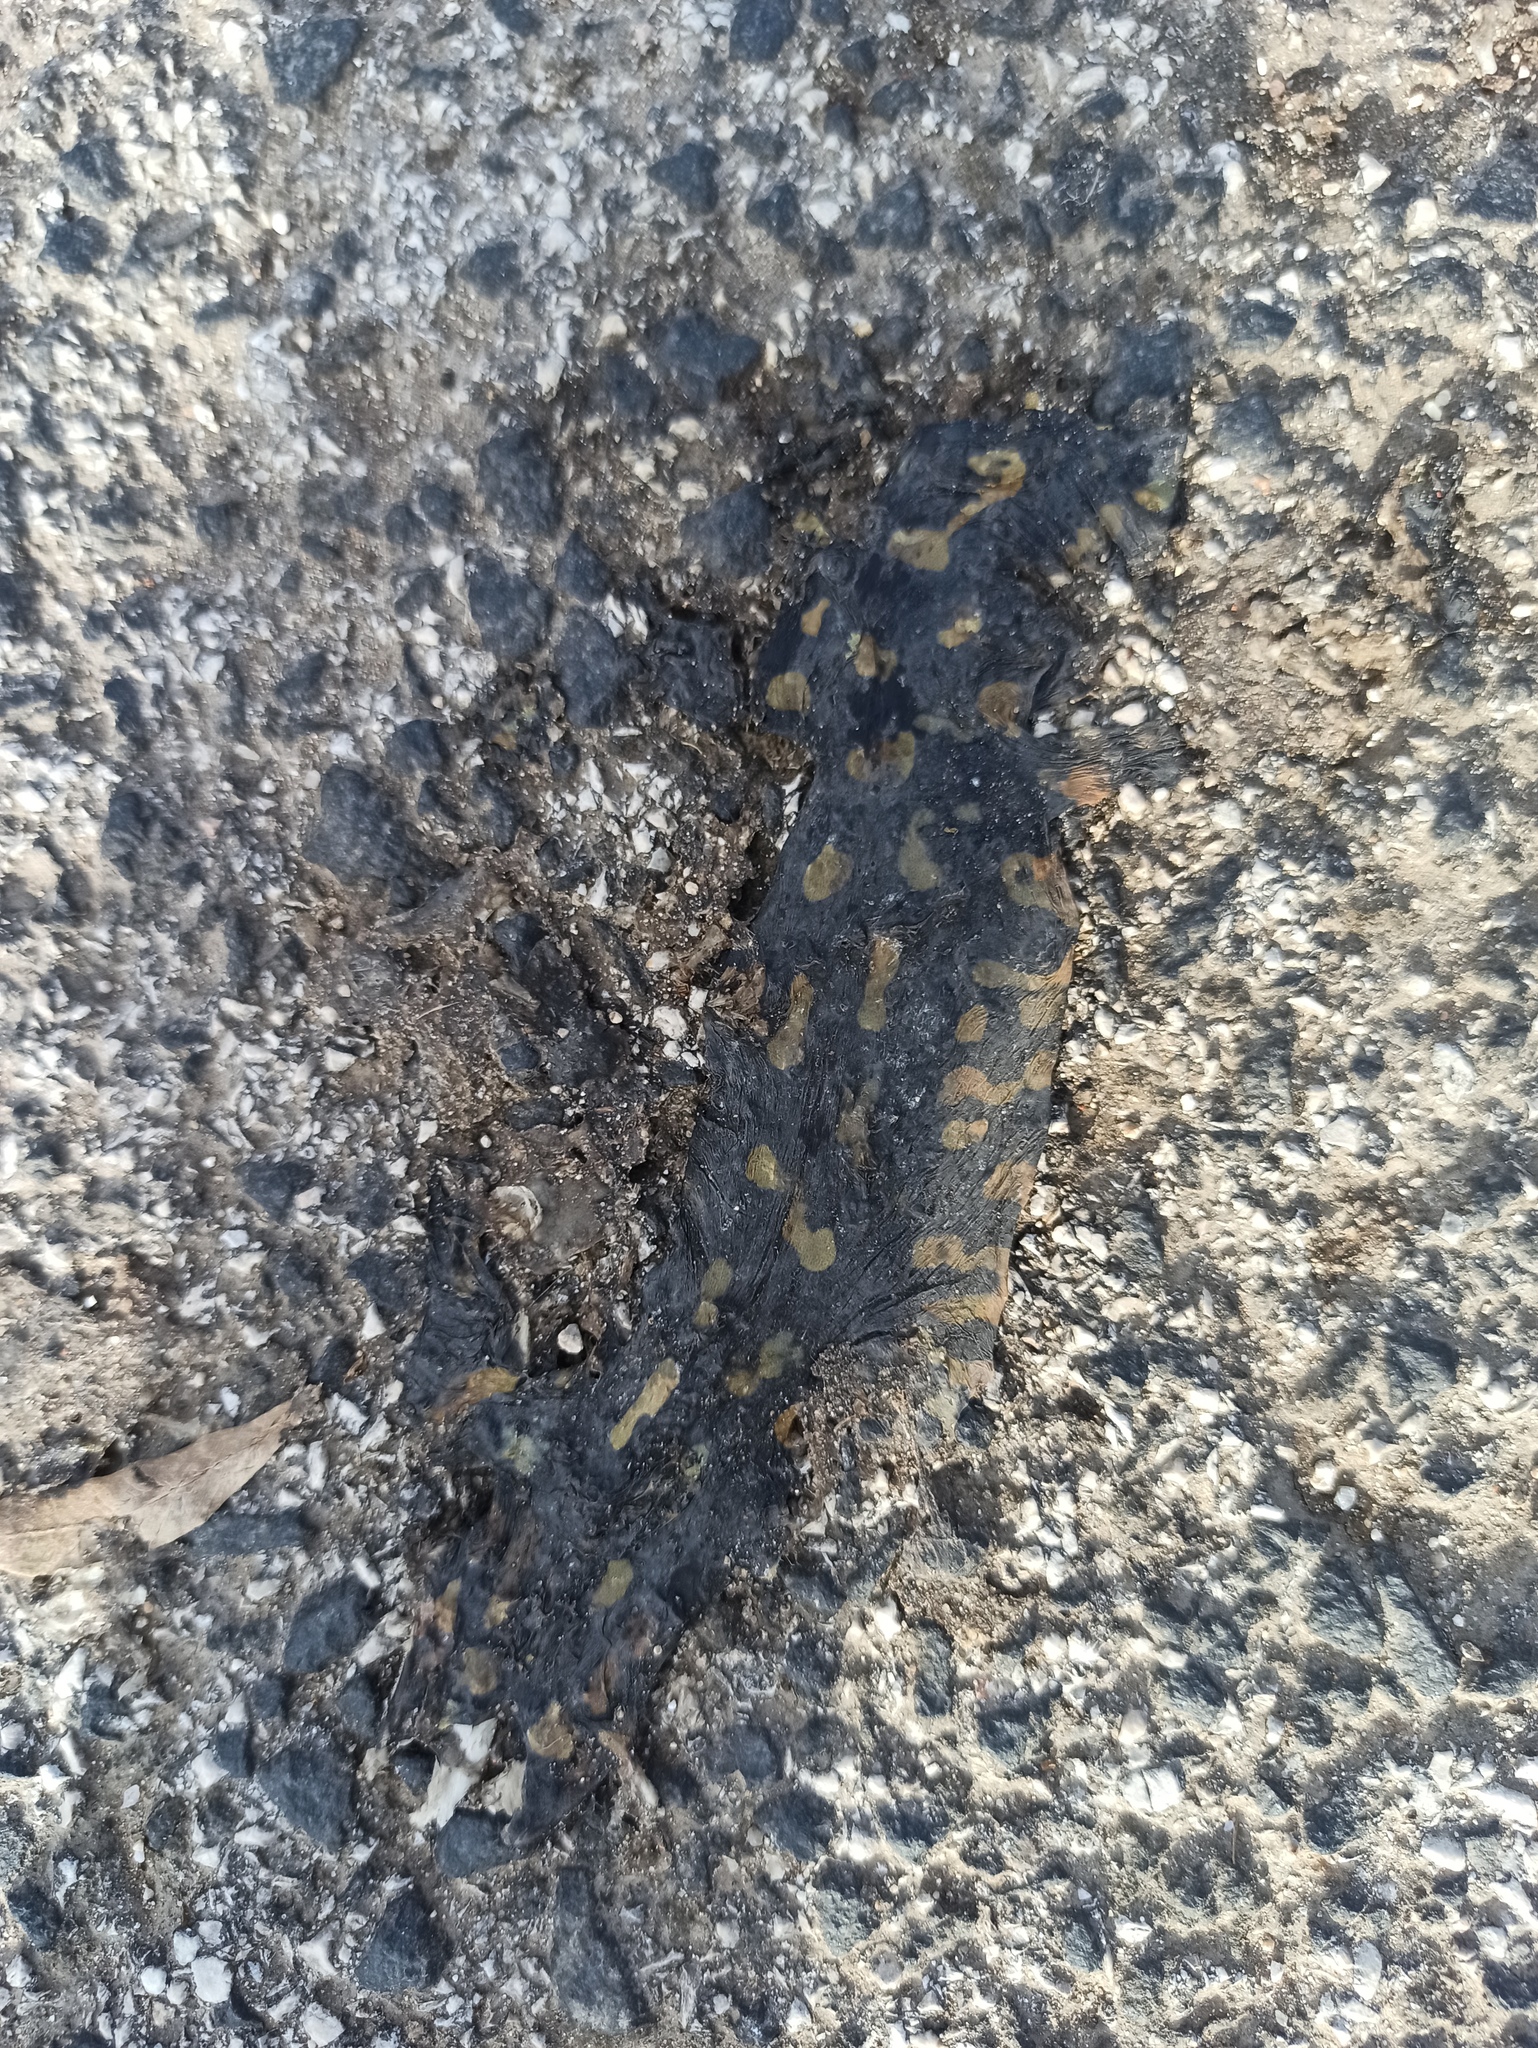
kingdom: Animalia
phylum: Chordata
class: Amphibia
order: Caudata
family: Salamandridae
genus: Salamandra
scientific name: Salamandra salamandra
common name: Fire salamander
